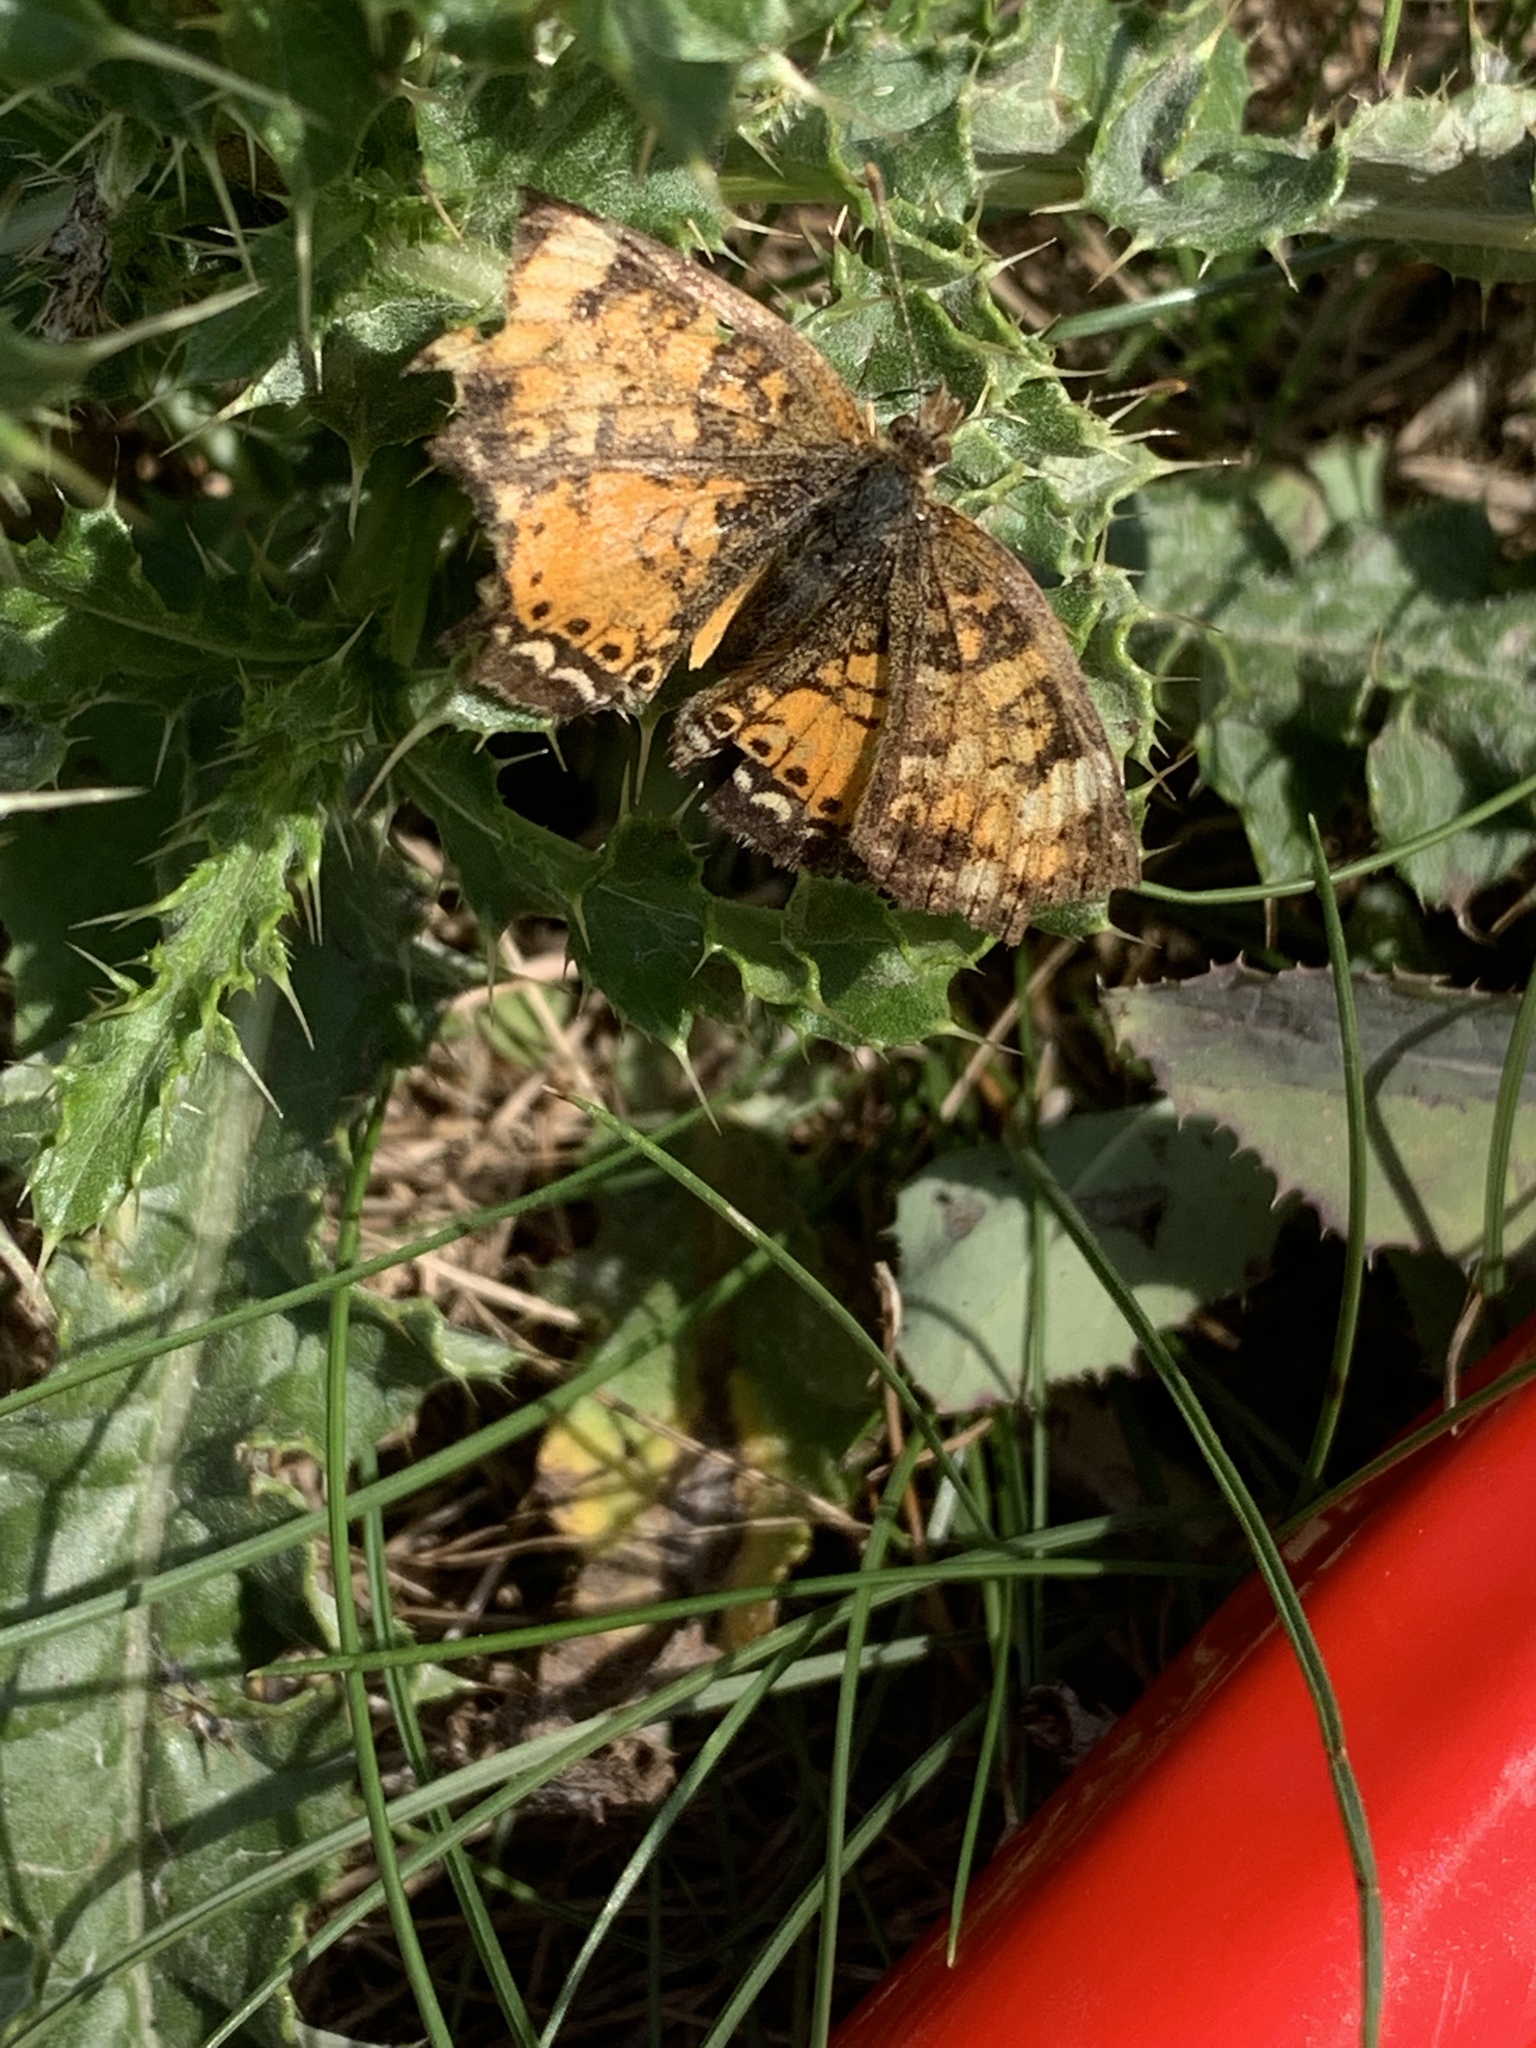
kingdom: Animalia
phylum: Arthropoda
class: Insecta
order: Lepidoptera
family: Nymphalidae
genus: Phyciodes
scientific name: Phyciodes tharos
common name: Pearl crescent
